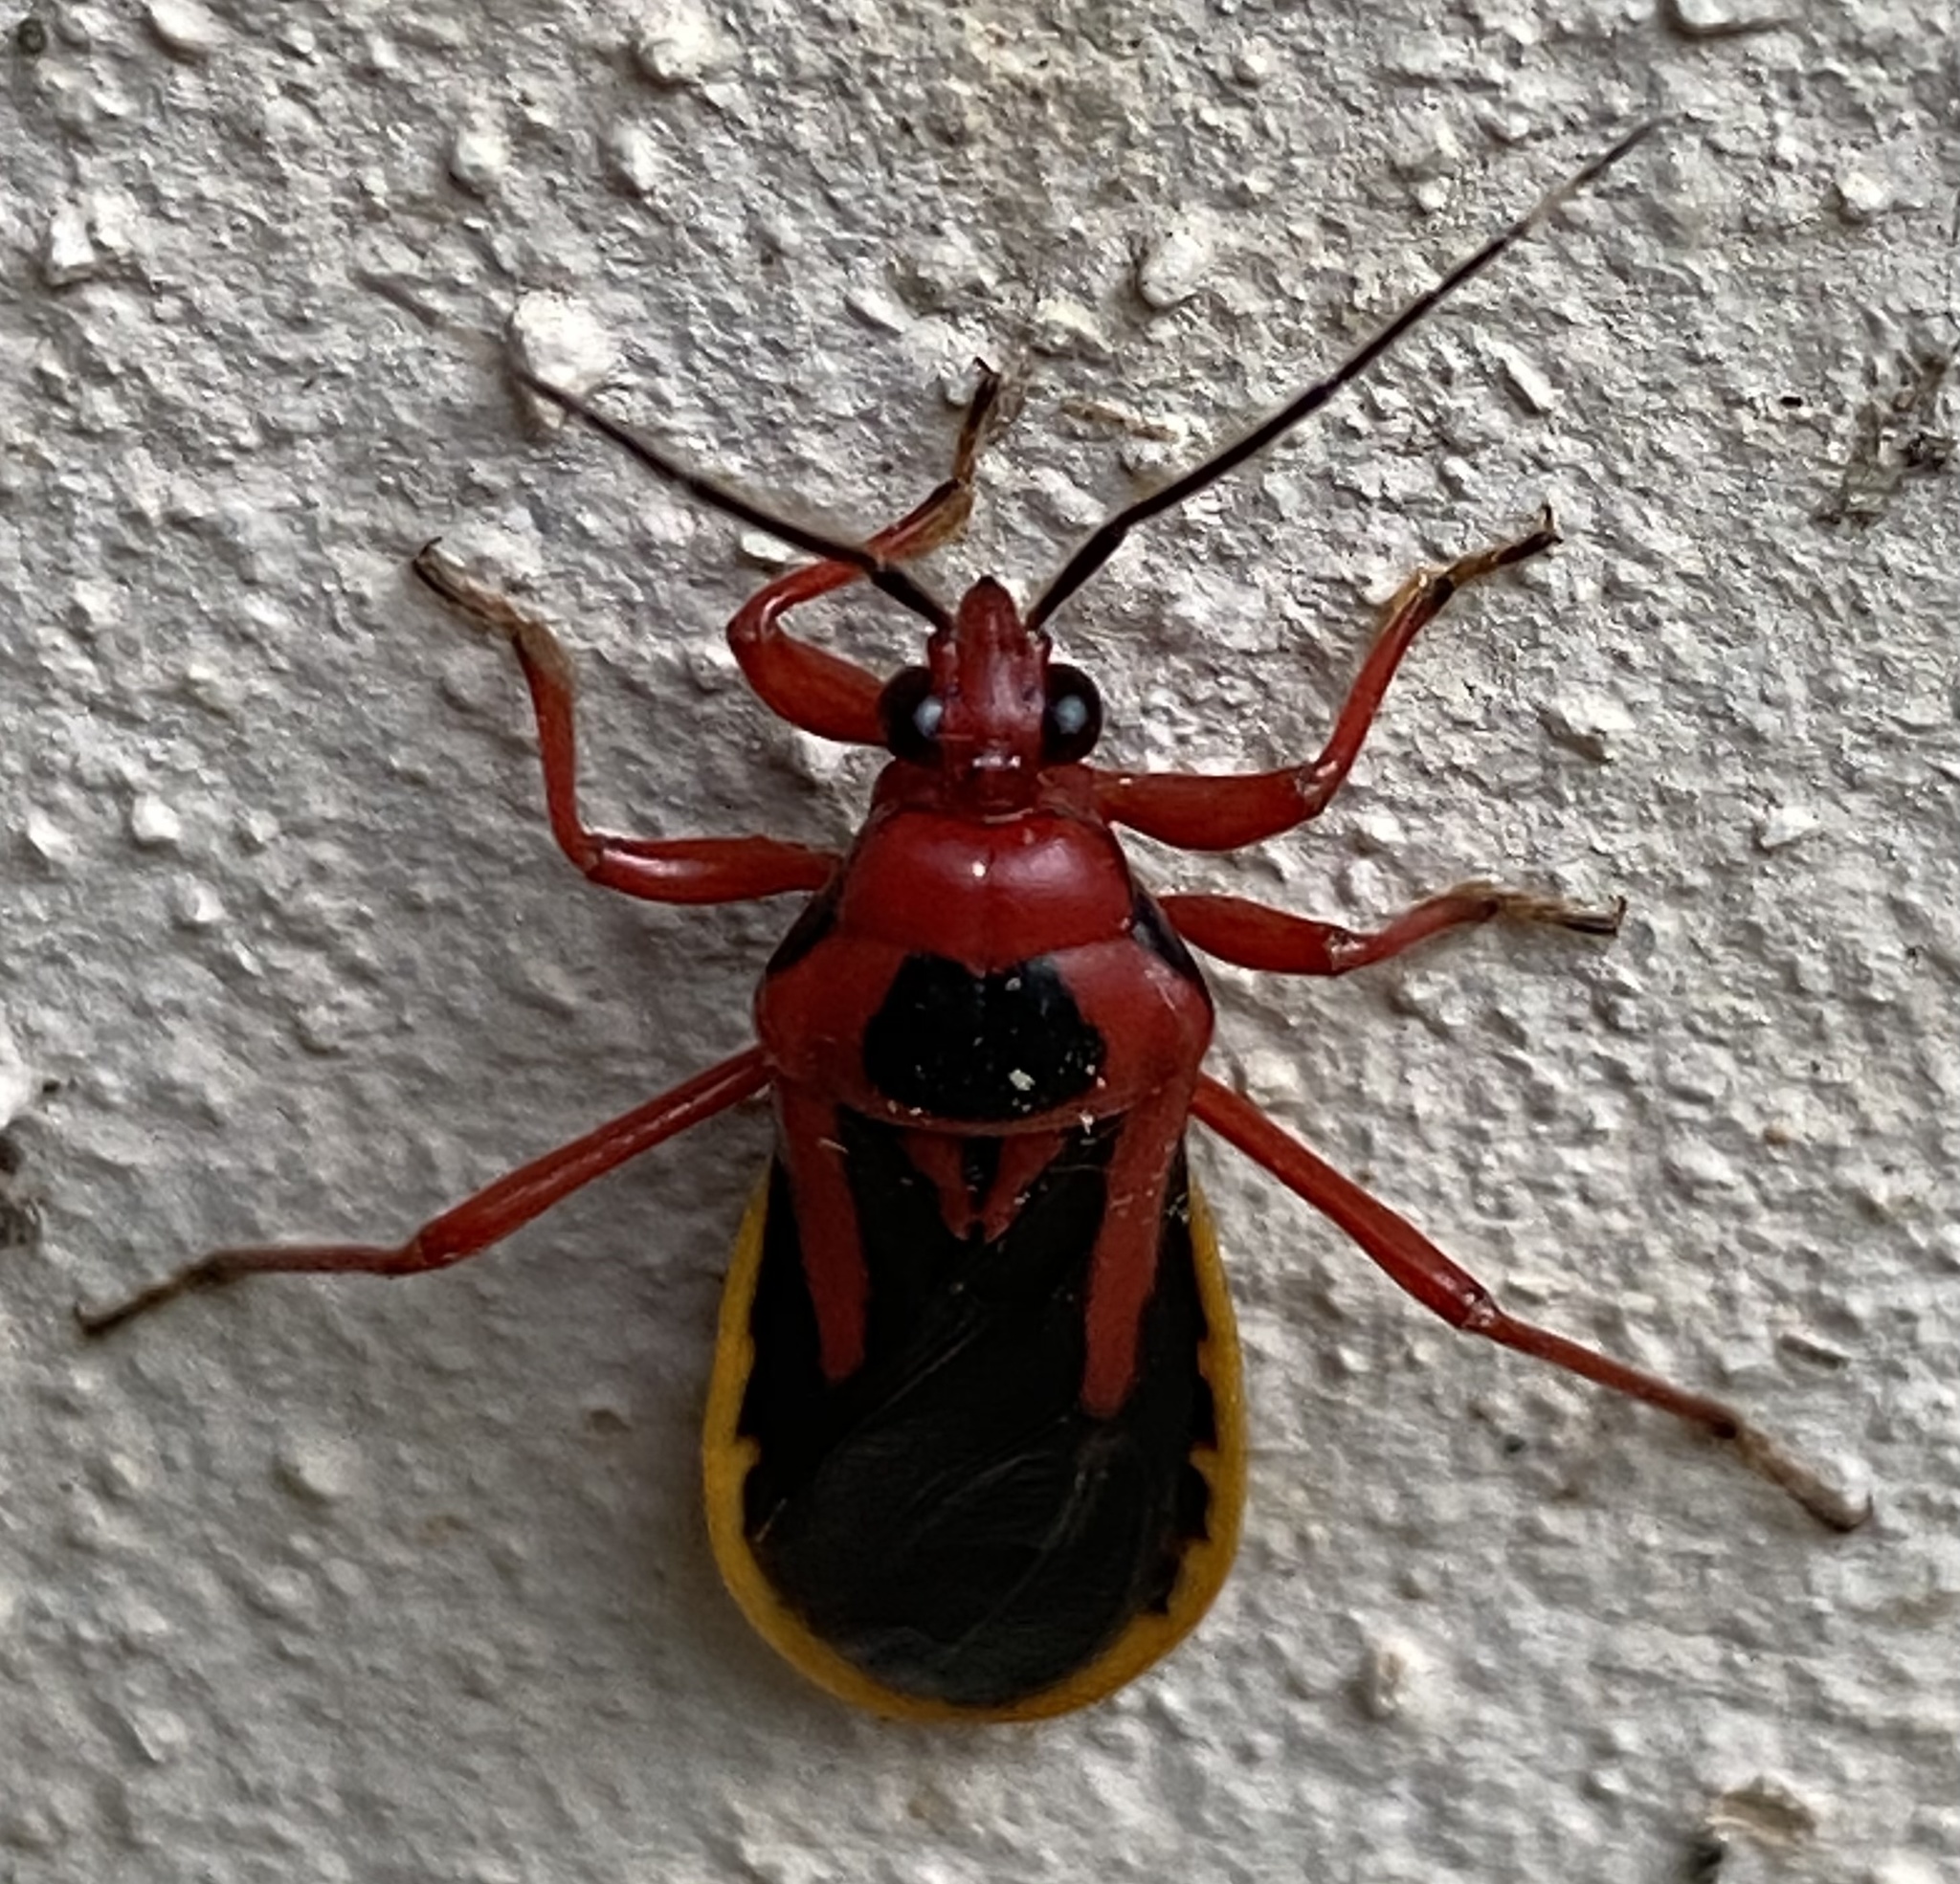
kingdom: Animalia
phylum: Arthropoda
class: Insecta
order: Hemiptera
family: Reduviidae
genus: Brontostoma
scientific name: Brontostoma discus
